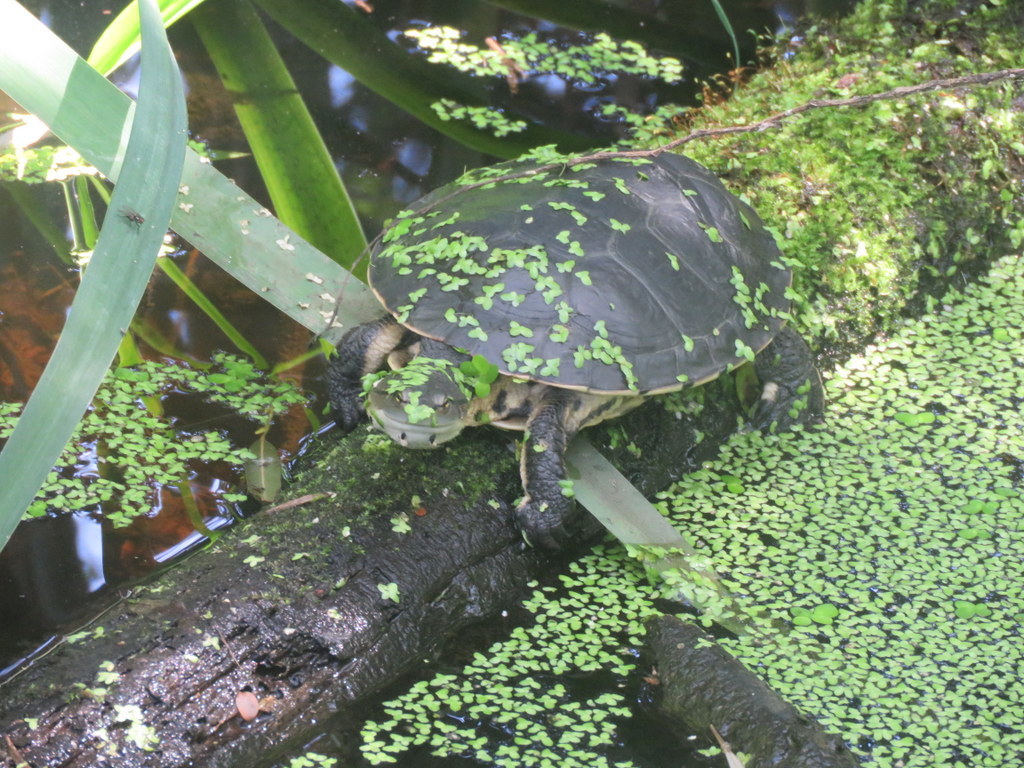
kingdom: Animalia
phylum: Chordata
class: Testudines
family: Chelidae
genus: Phrynops
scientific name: Phrynops hilarii
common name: Side-necked turtle of saint hillaire
